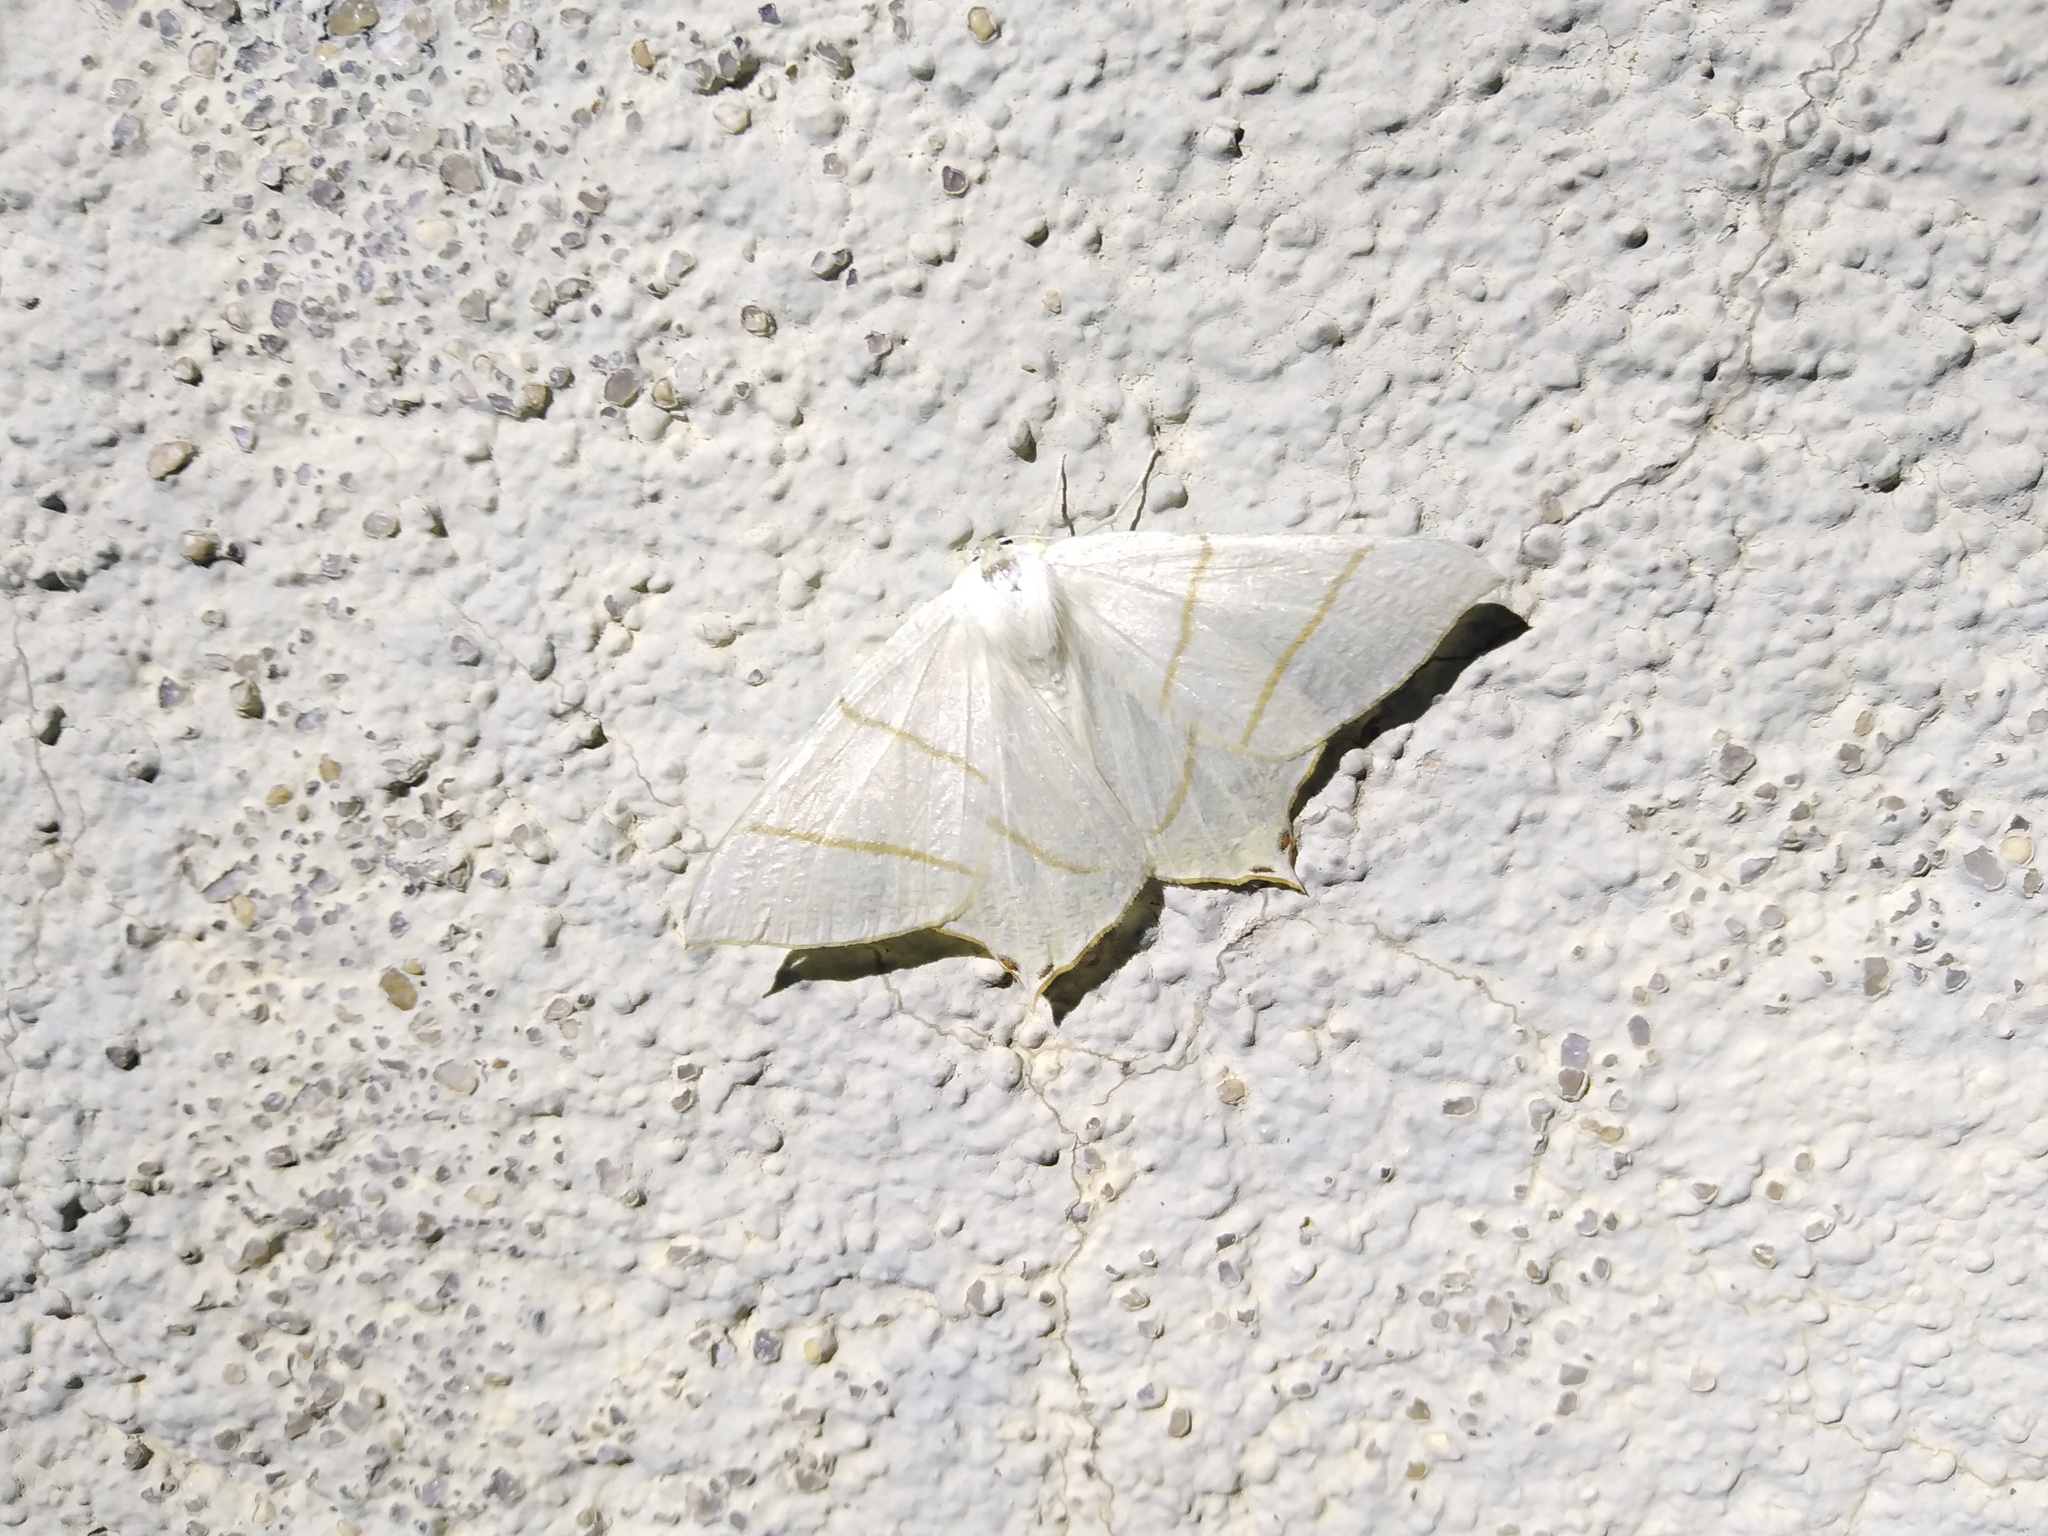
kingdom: Animalia
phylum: Arthropoda
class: Insecta
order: Lepidoptera
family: Geometridae
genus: Ourapteryx
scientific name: Ourapteryx sambucaria
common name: Swallow-tailed moth
